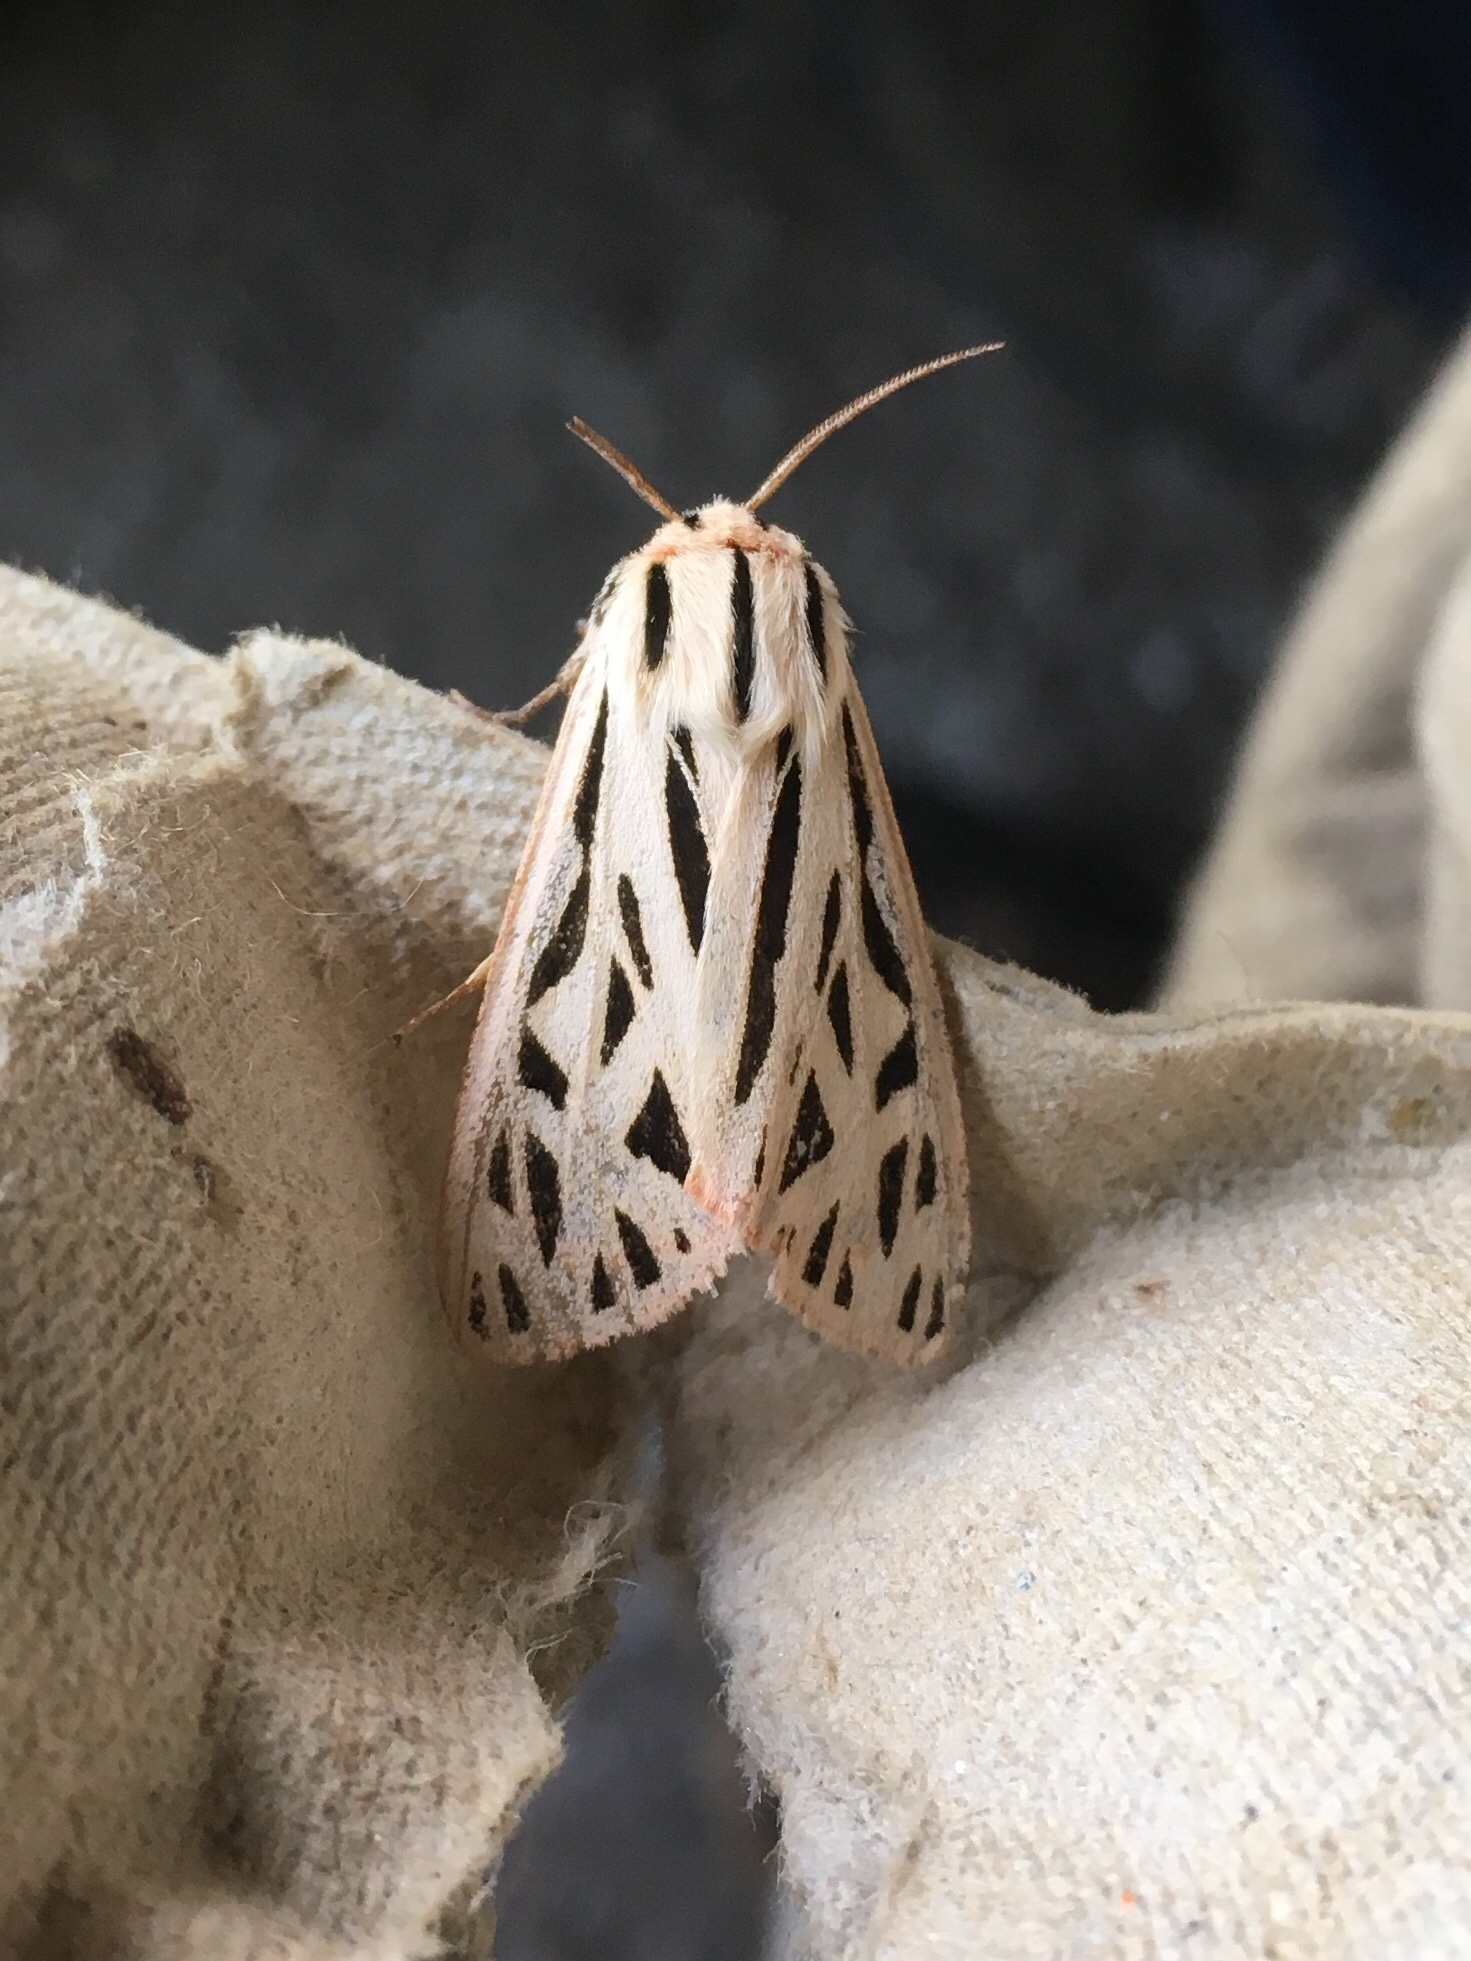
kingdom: Animalia
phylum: Arthropoda
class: Insecta
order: Lepidoptera
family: Erebidae
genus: Apantesis
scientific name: Apantesis arge
